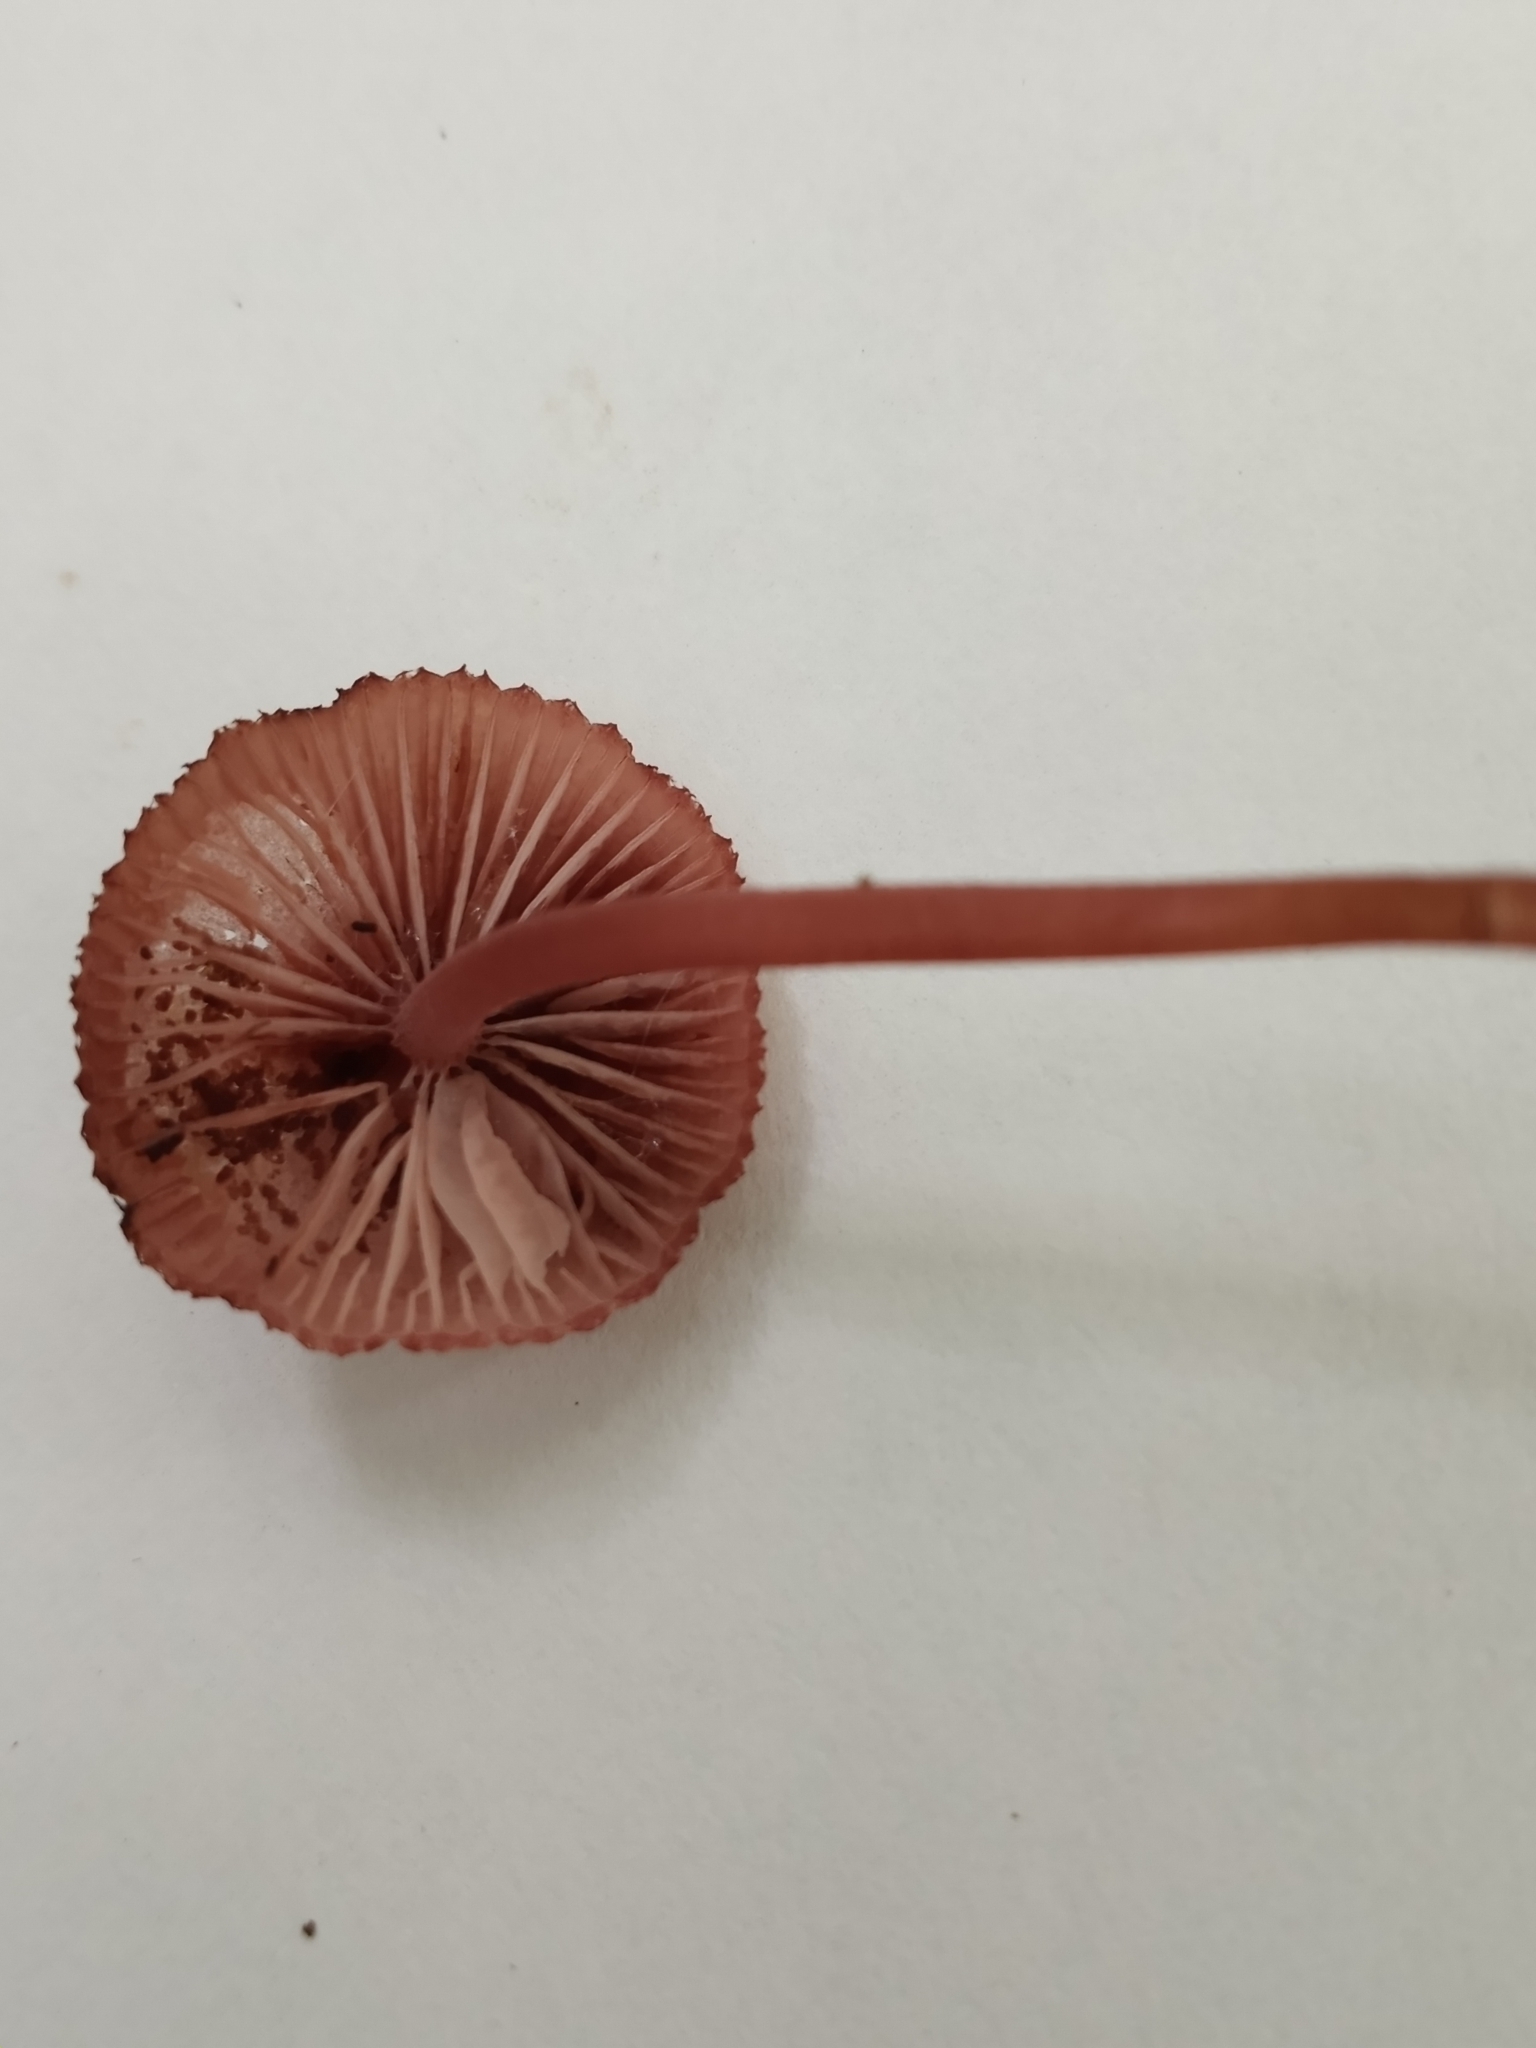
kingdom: Fungi
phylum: Basidiomycota
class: Agaricomycetes
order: Agaricales
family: Mycenaceae
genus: Mycena
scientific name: Mycena haematopus
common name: Burgundydrop bonnet
